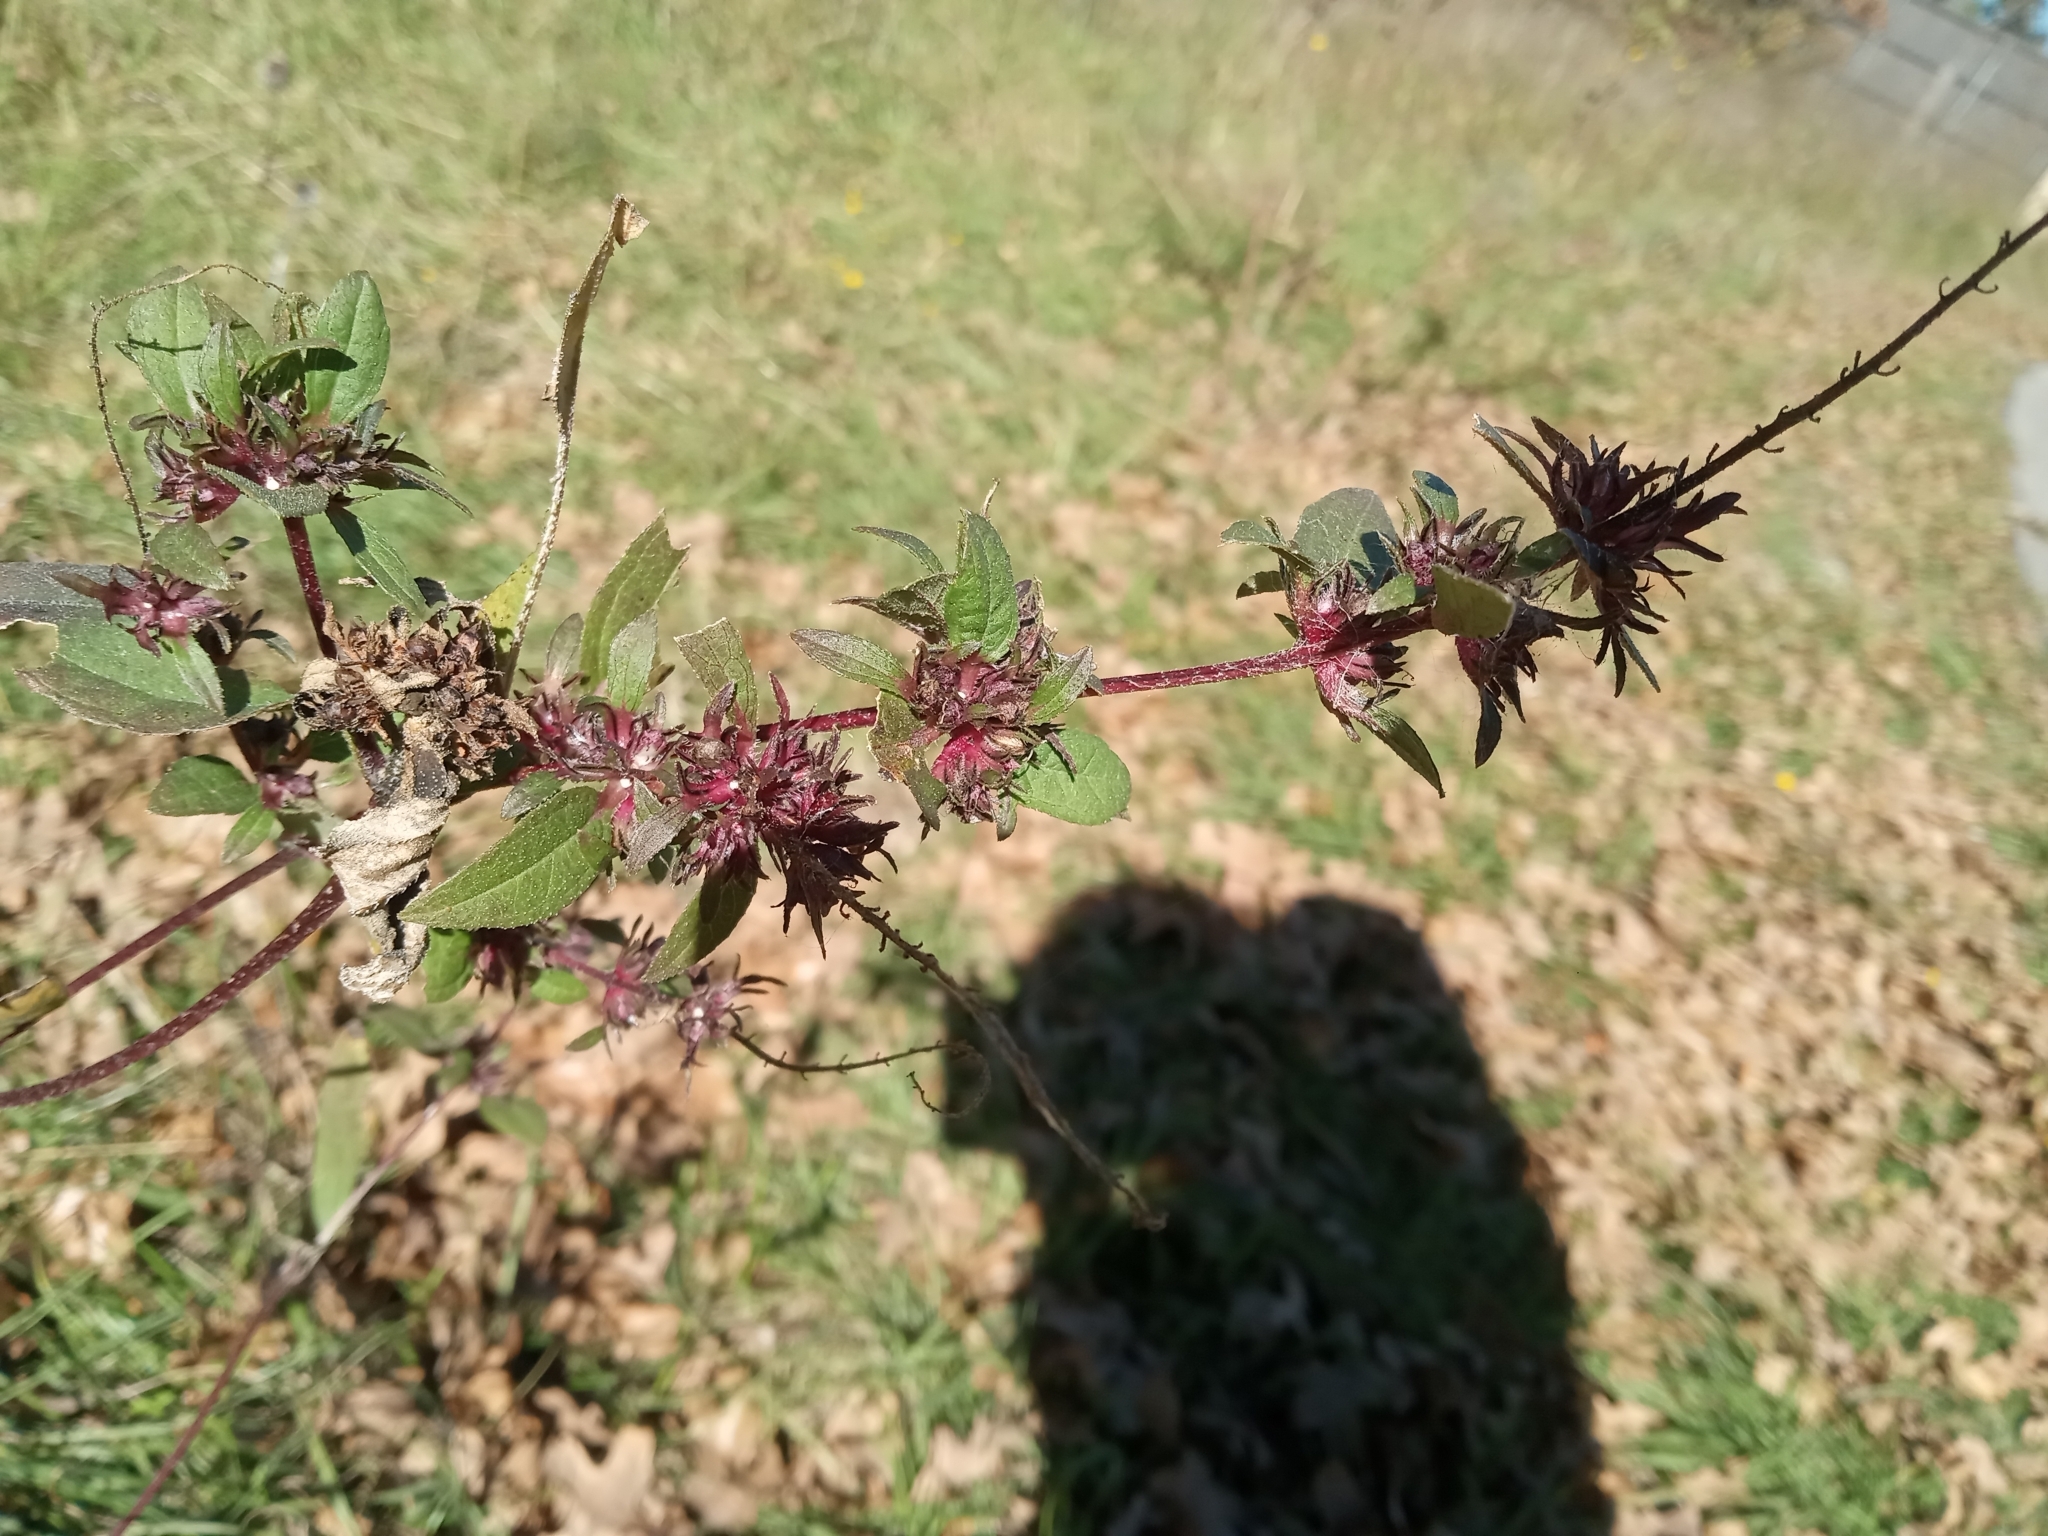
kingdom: Plantae
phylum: Tracheophyta
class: Magnoliopsida
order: Asterales
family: Asteraceae
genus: Ambrosia
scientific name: Ambrosia trifida
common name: Giant ragweed
